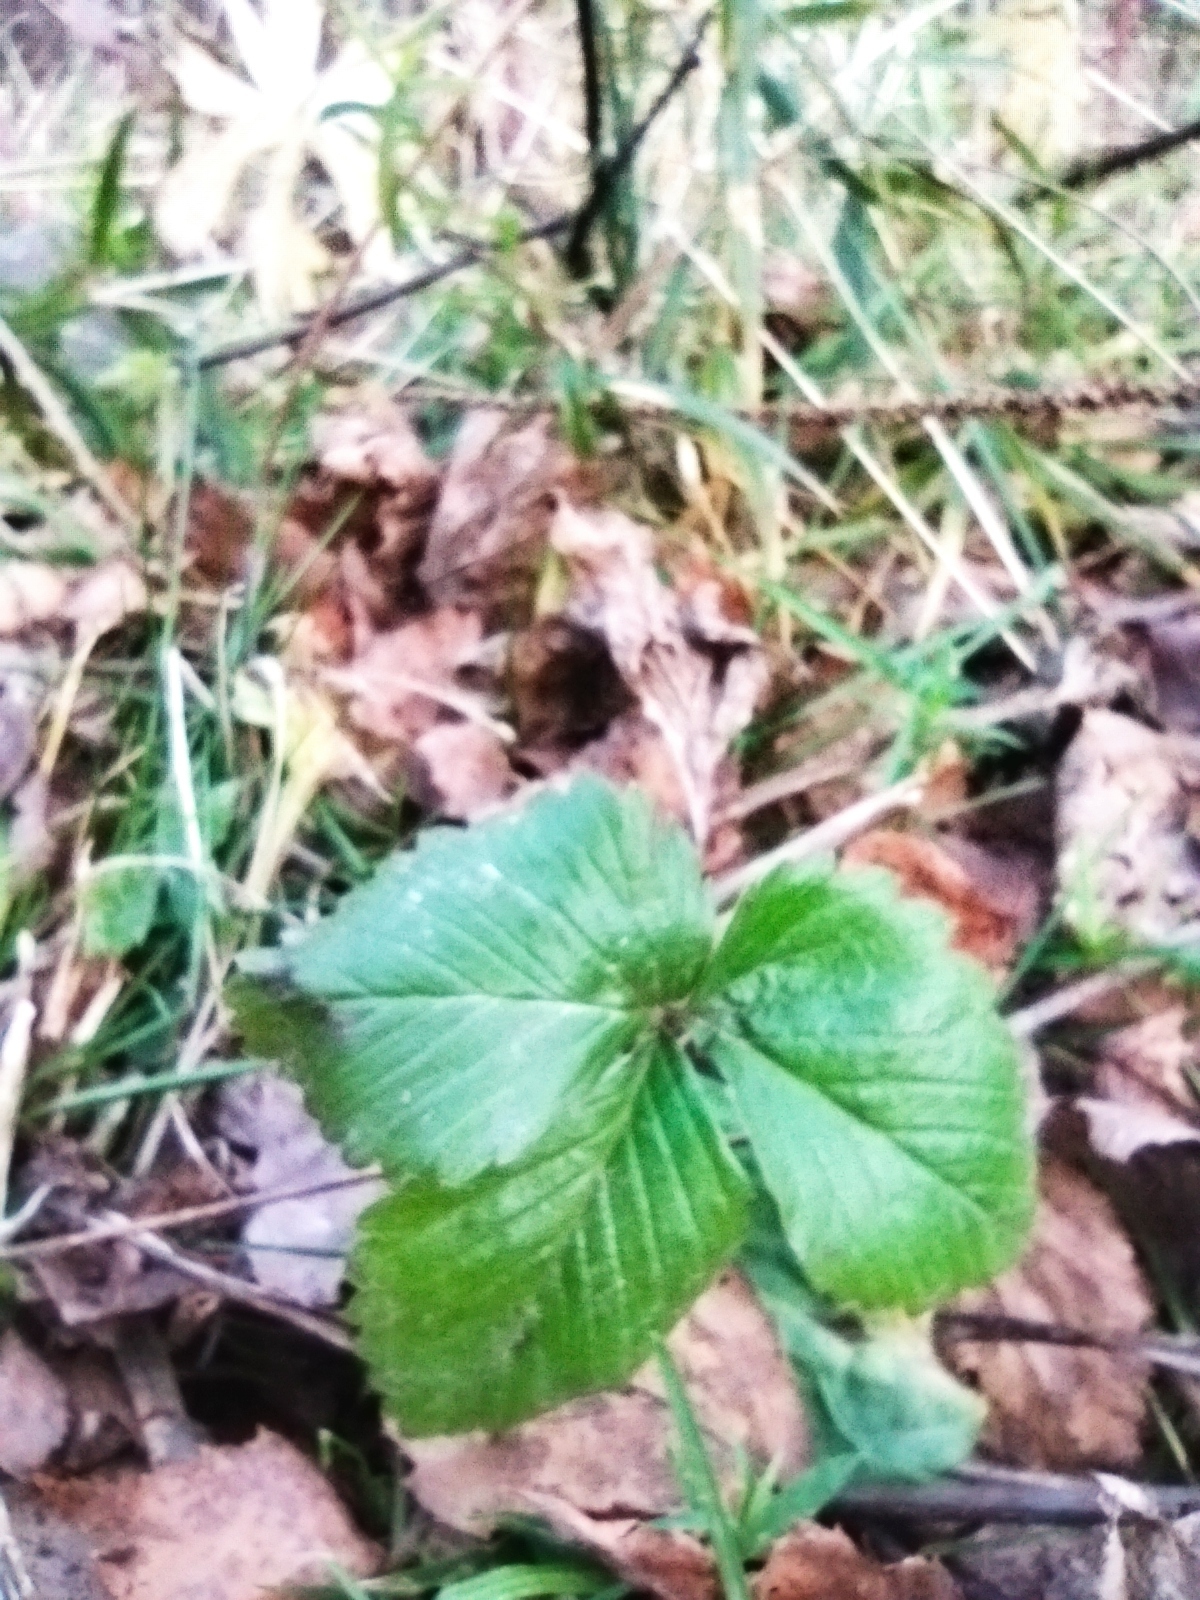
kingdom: Plantae
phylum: Tracheophyta
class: Magnoliopsida
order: Rosales
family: Rosaceae
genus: Fragaria
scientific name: Fragaria vesca
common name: Wild strawberry
